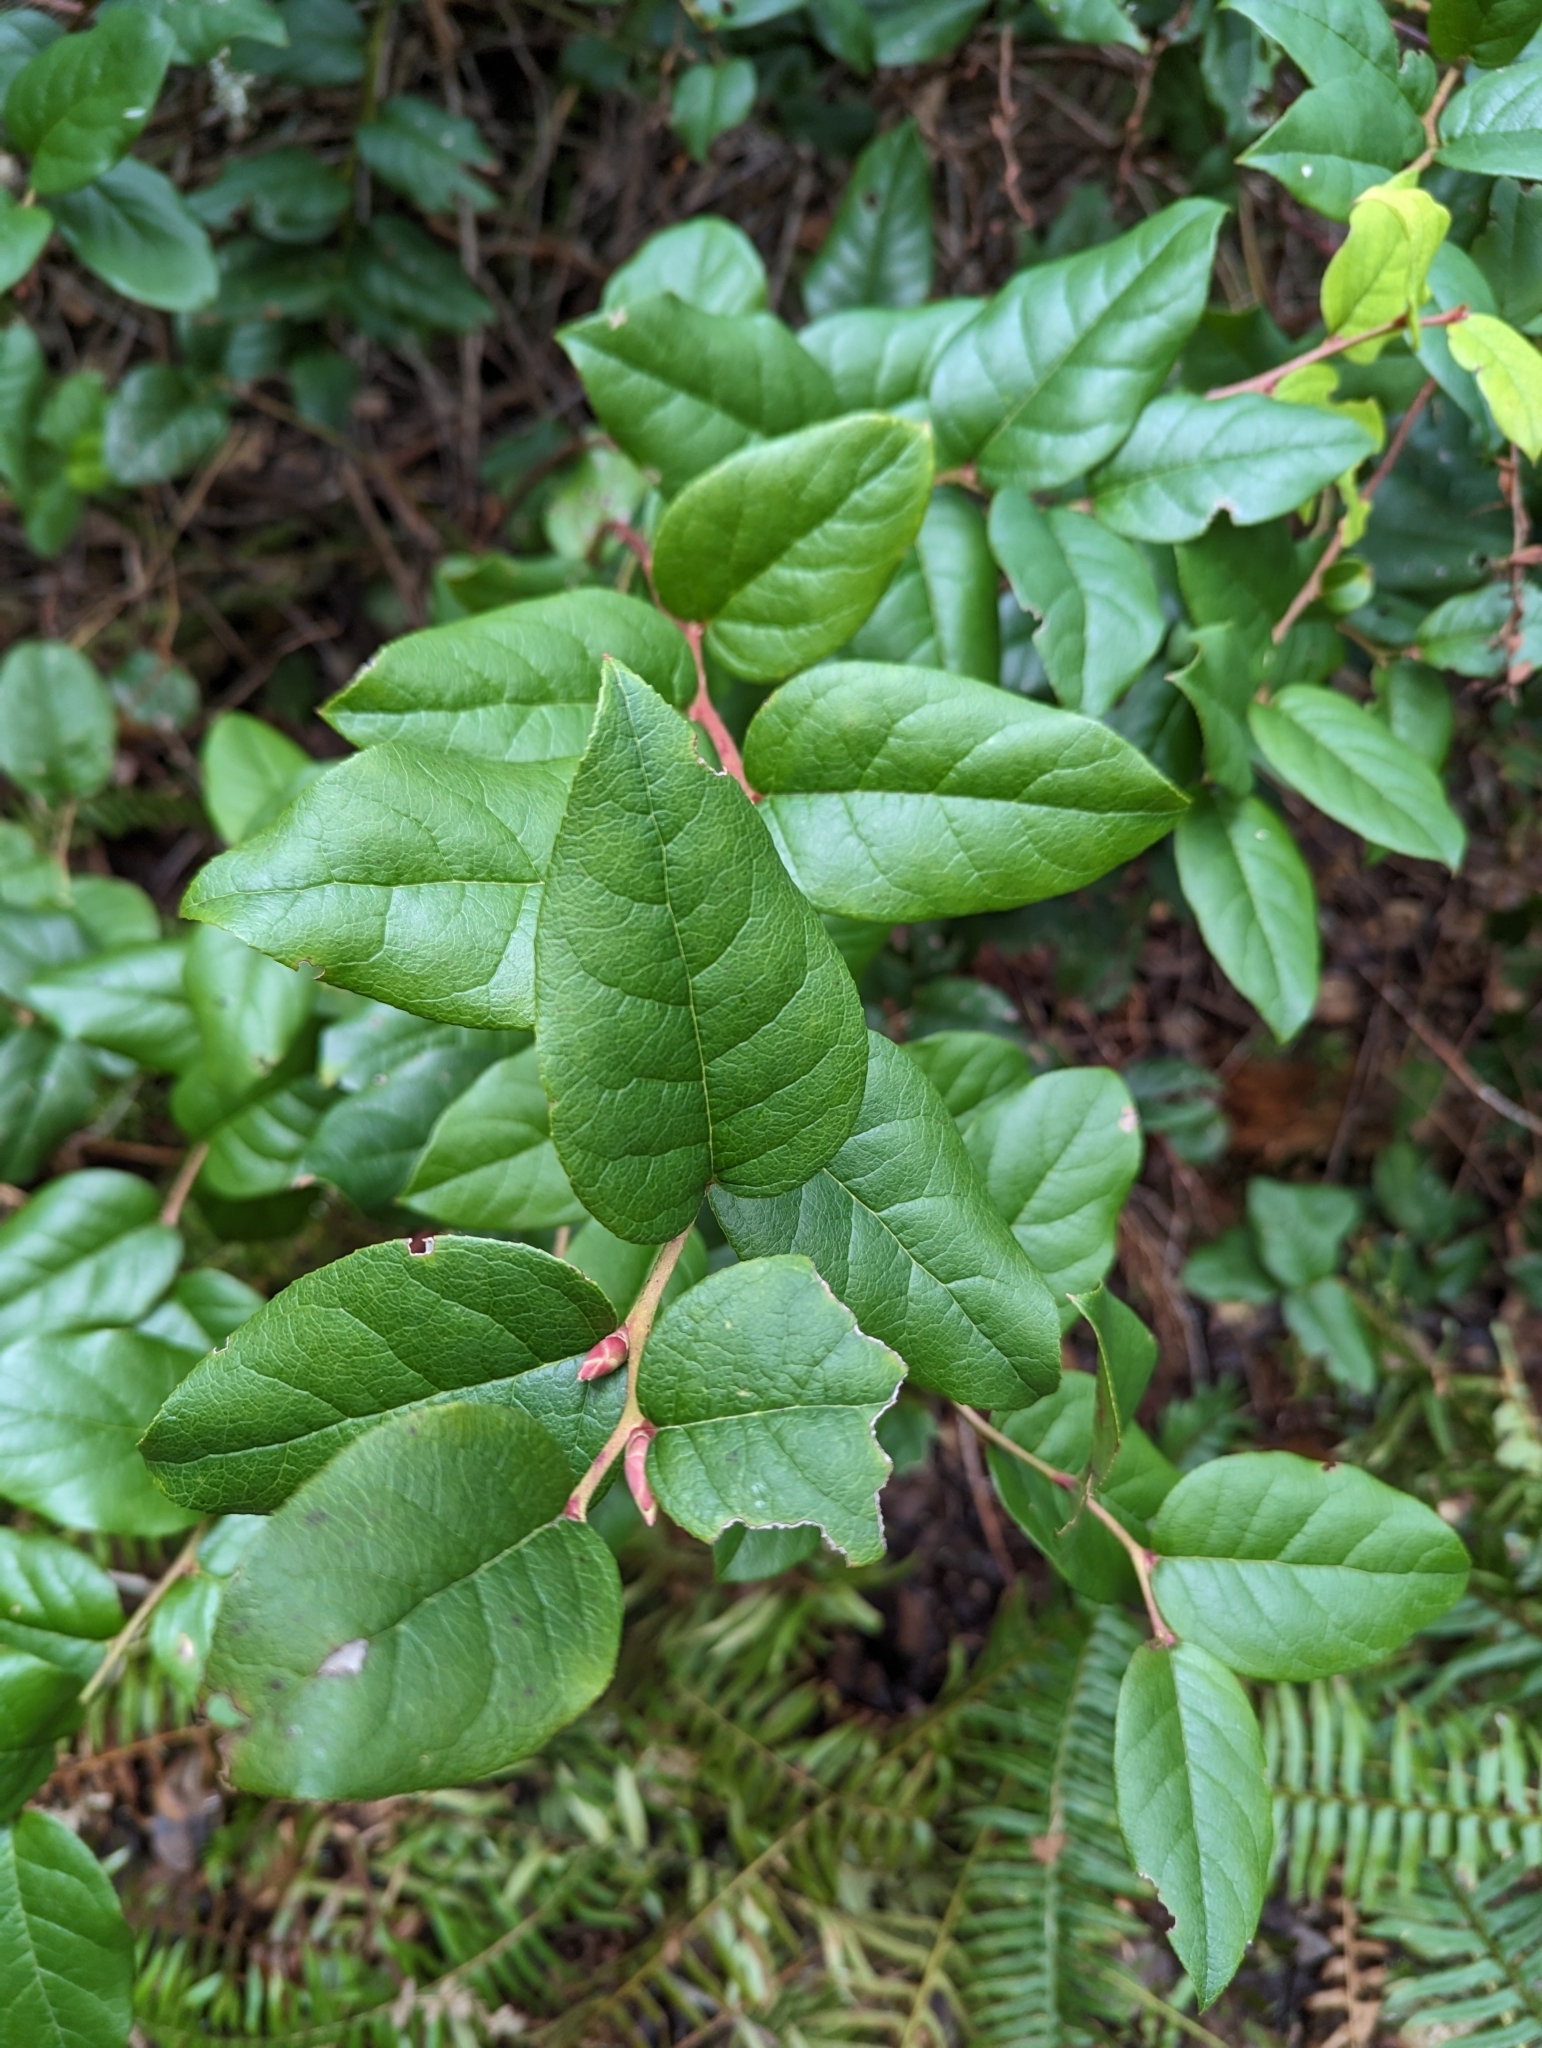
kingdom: Plantae
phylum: Tracheophyta
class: Magnoliopsida
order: Ericales
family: Ericaceae
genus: Gaultheria
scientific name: Gaultheria shallon
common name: Shallon
